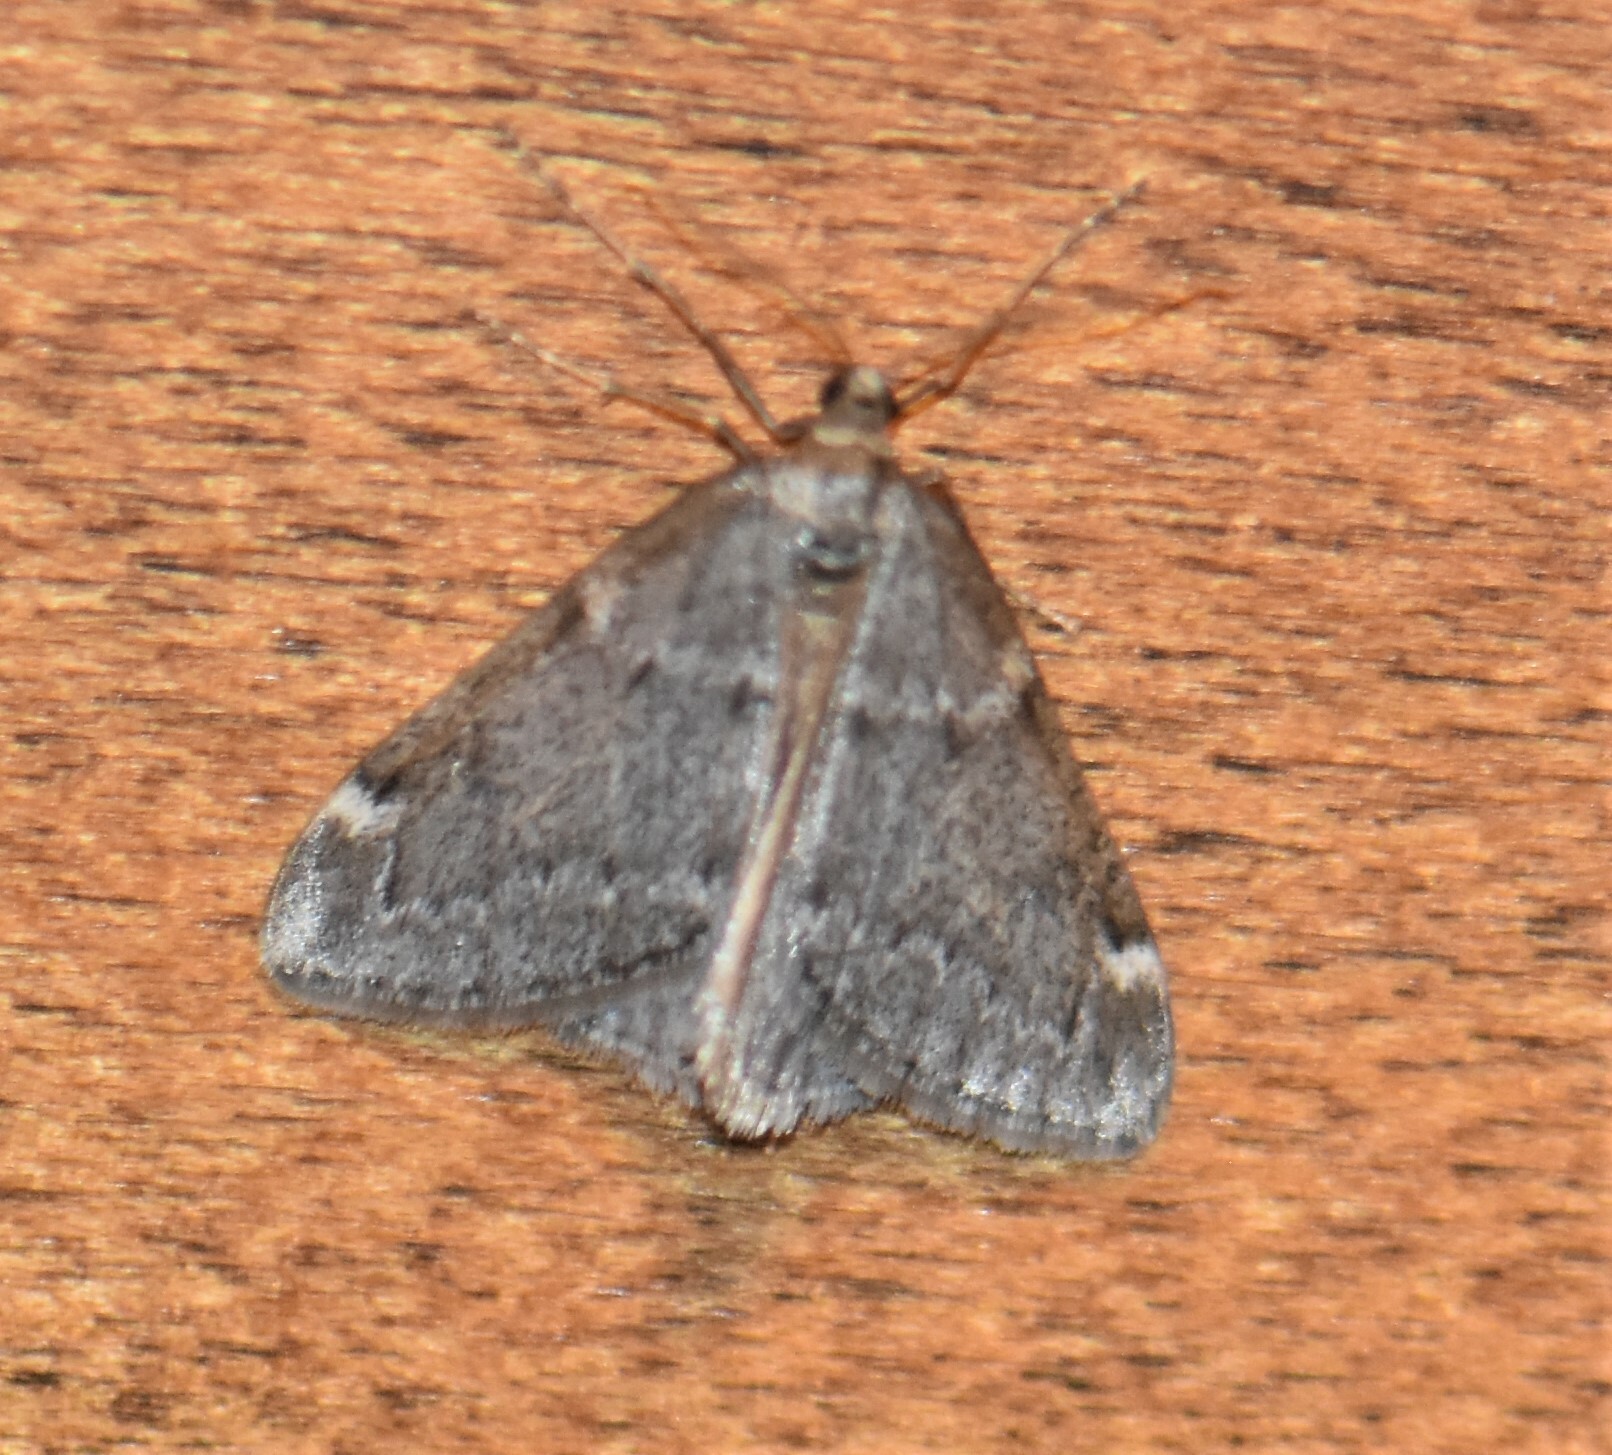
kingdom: Animalia
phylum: Arthropoda
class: Insecta
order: Lepidoptera
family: Geometridae
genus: Alsophila
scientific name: Alsophila pometaria
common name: Fall cankerworm
